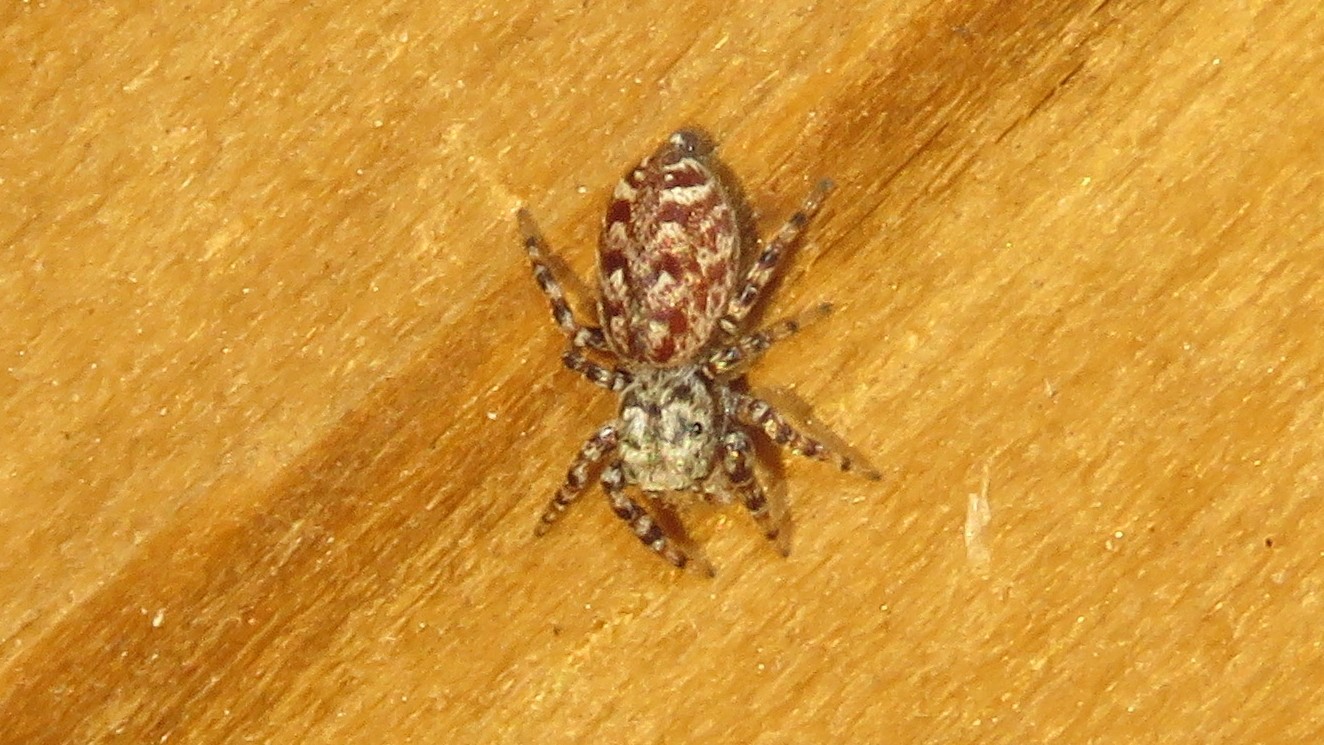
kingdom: Animalia
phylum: Arthropoda
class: Arachnida
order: Araneae
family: Salticidae
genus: Pelegrina
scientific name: Pelegrina galathea
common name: Jumping spiders
